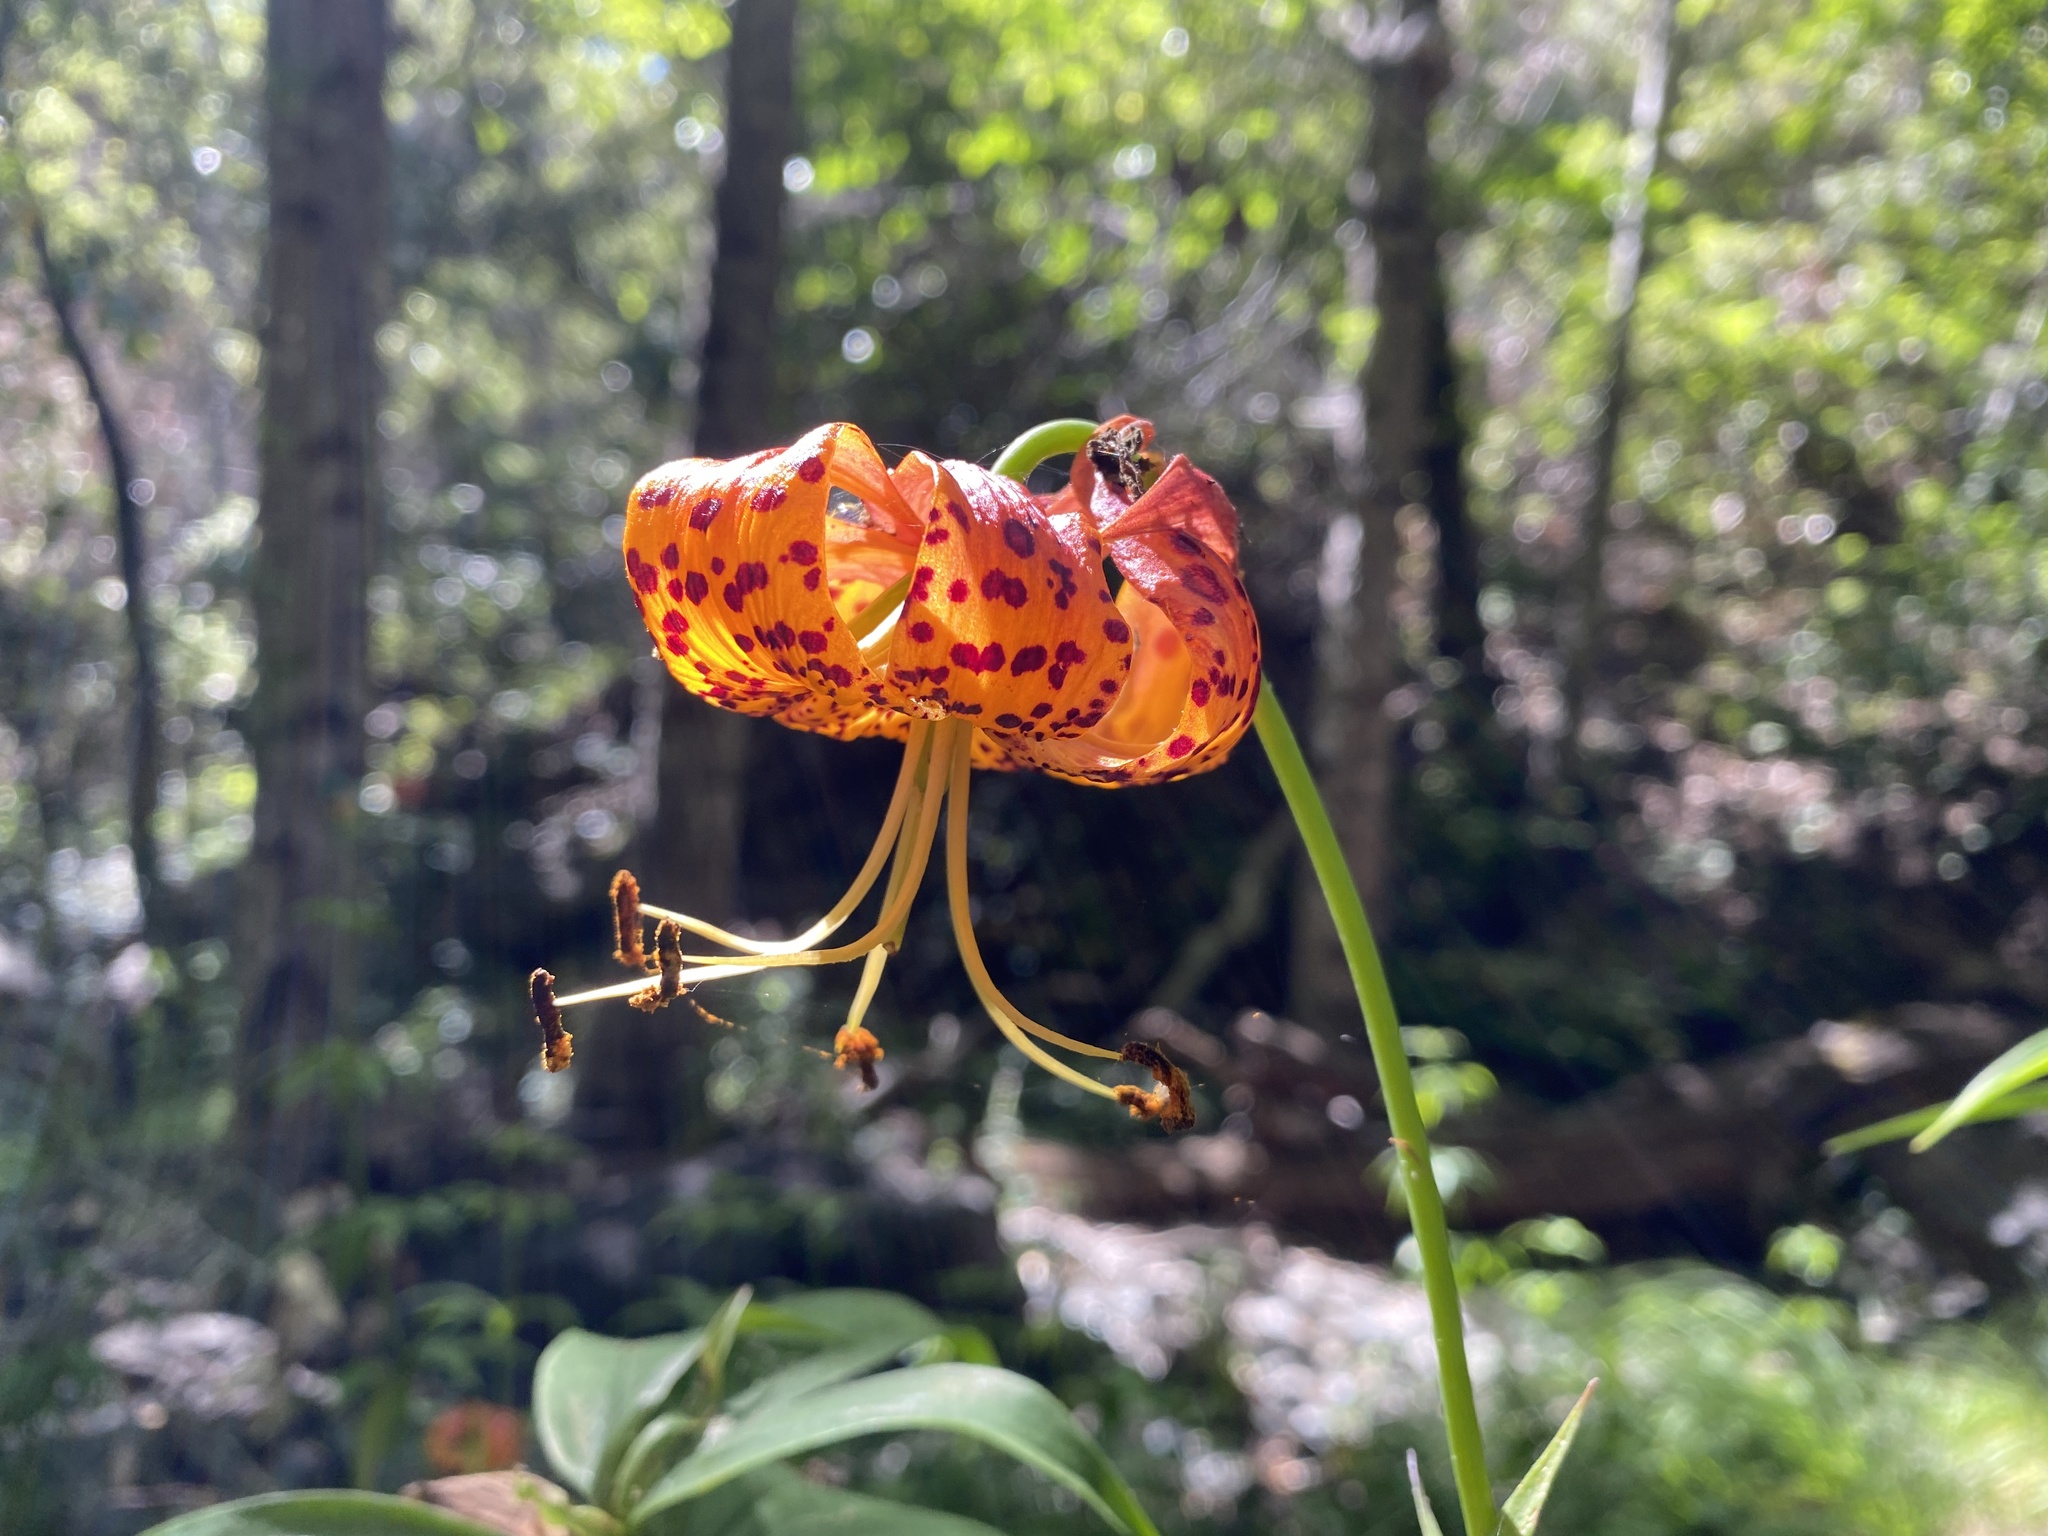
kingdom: Plantae
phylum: Tracheophyta
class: Liliopsida
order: Liliales
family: Liliaceae
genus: Lilium
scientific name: Lilium pardalinum
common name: Panther lily
